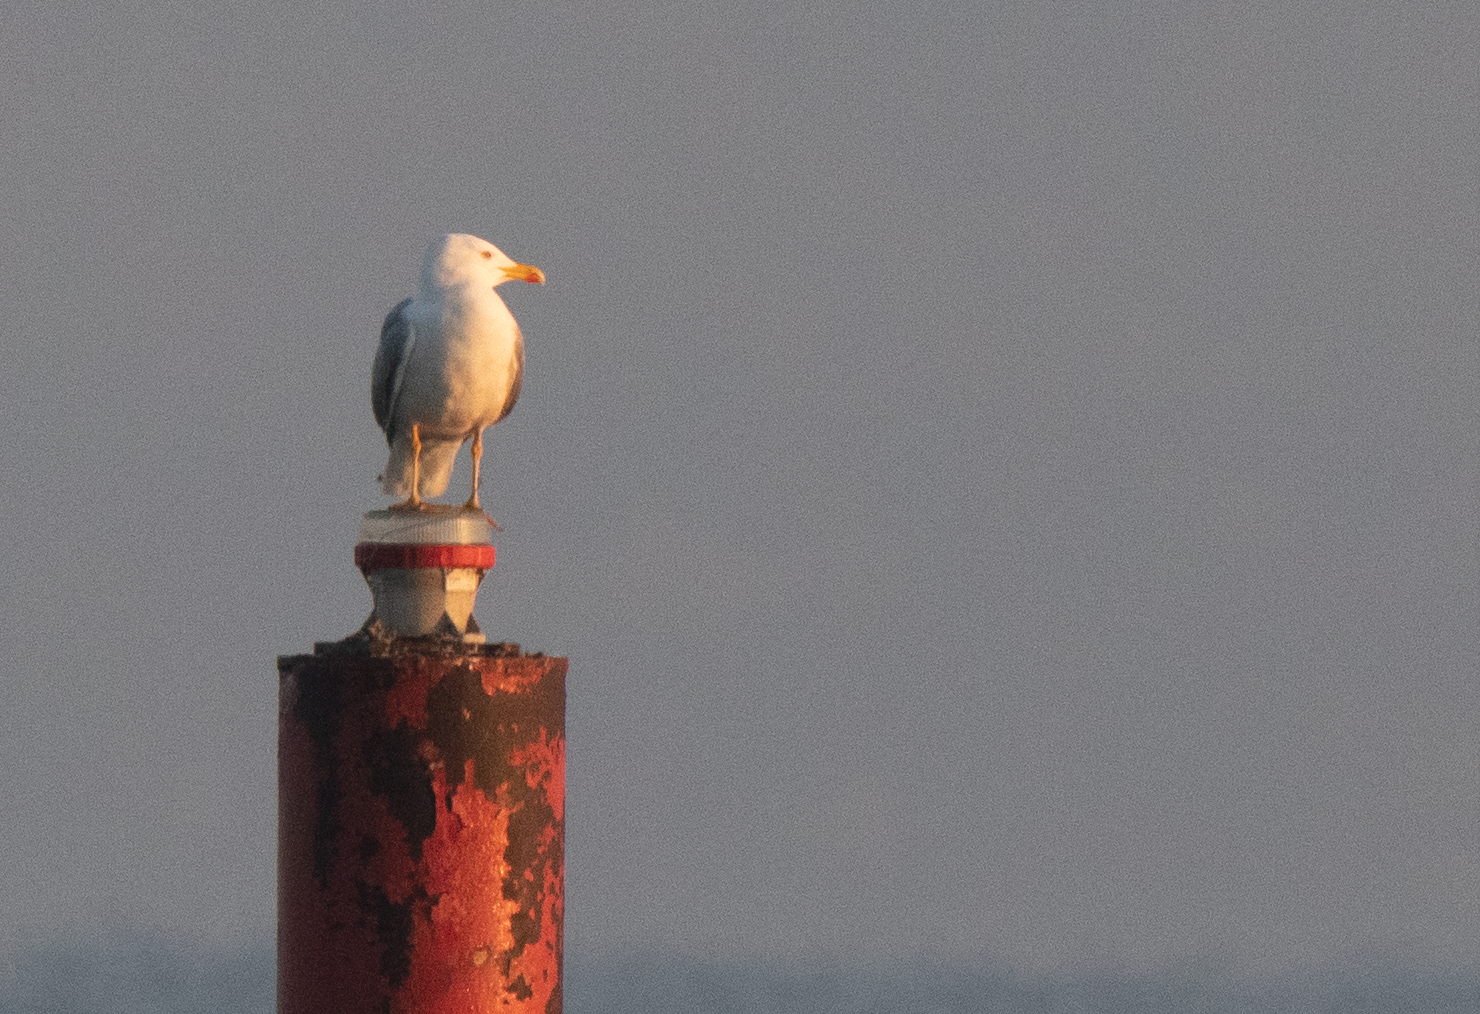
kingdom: Animalia
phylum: Chordata
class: Aves
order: Charadriiformes
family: Laridae
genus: Larus
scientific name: Larus michahellis
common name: Yellow-legged gull
